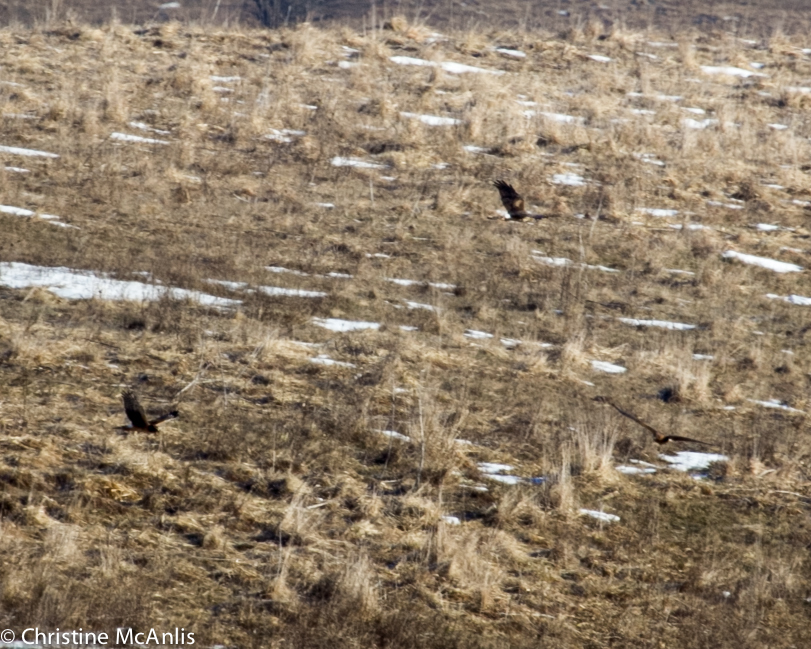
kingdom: Animalia
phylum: Chordata
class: Aves
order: Accipitriformes
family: Accipitridae
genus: Circus
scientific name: Circus cyaneus
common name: Hen harrier
